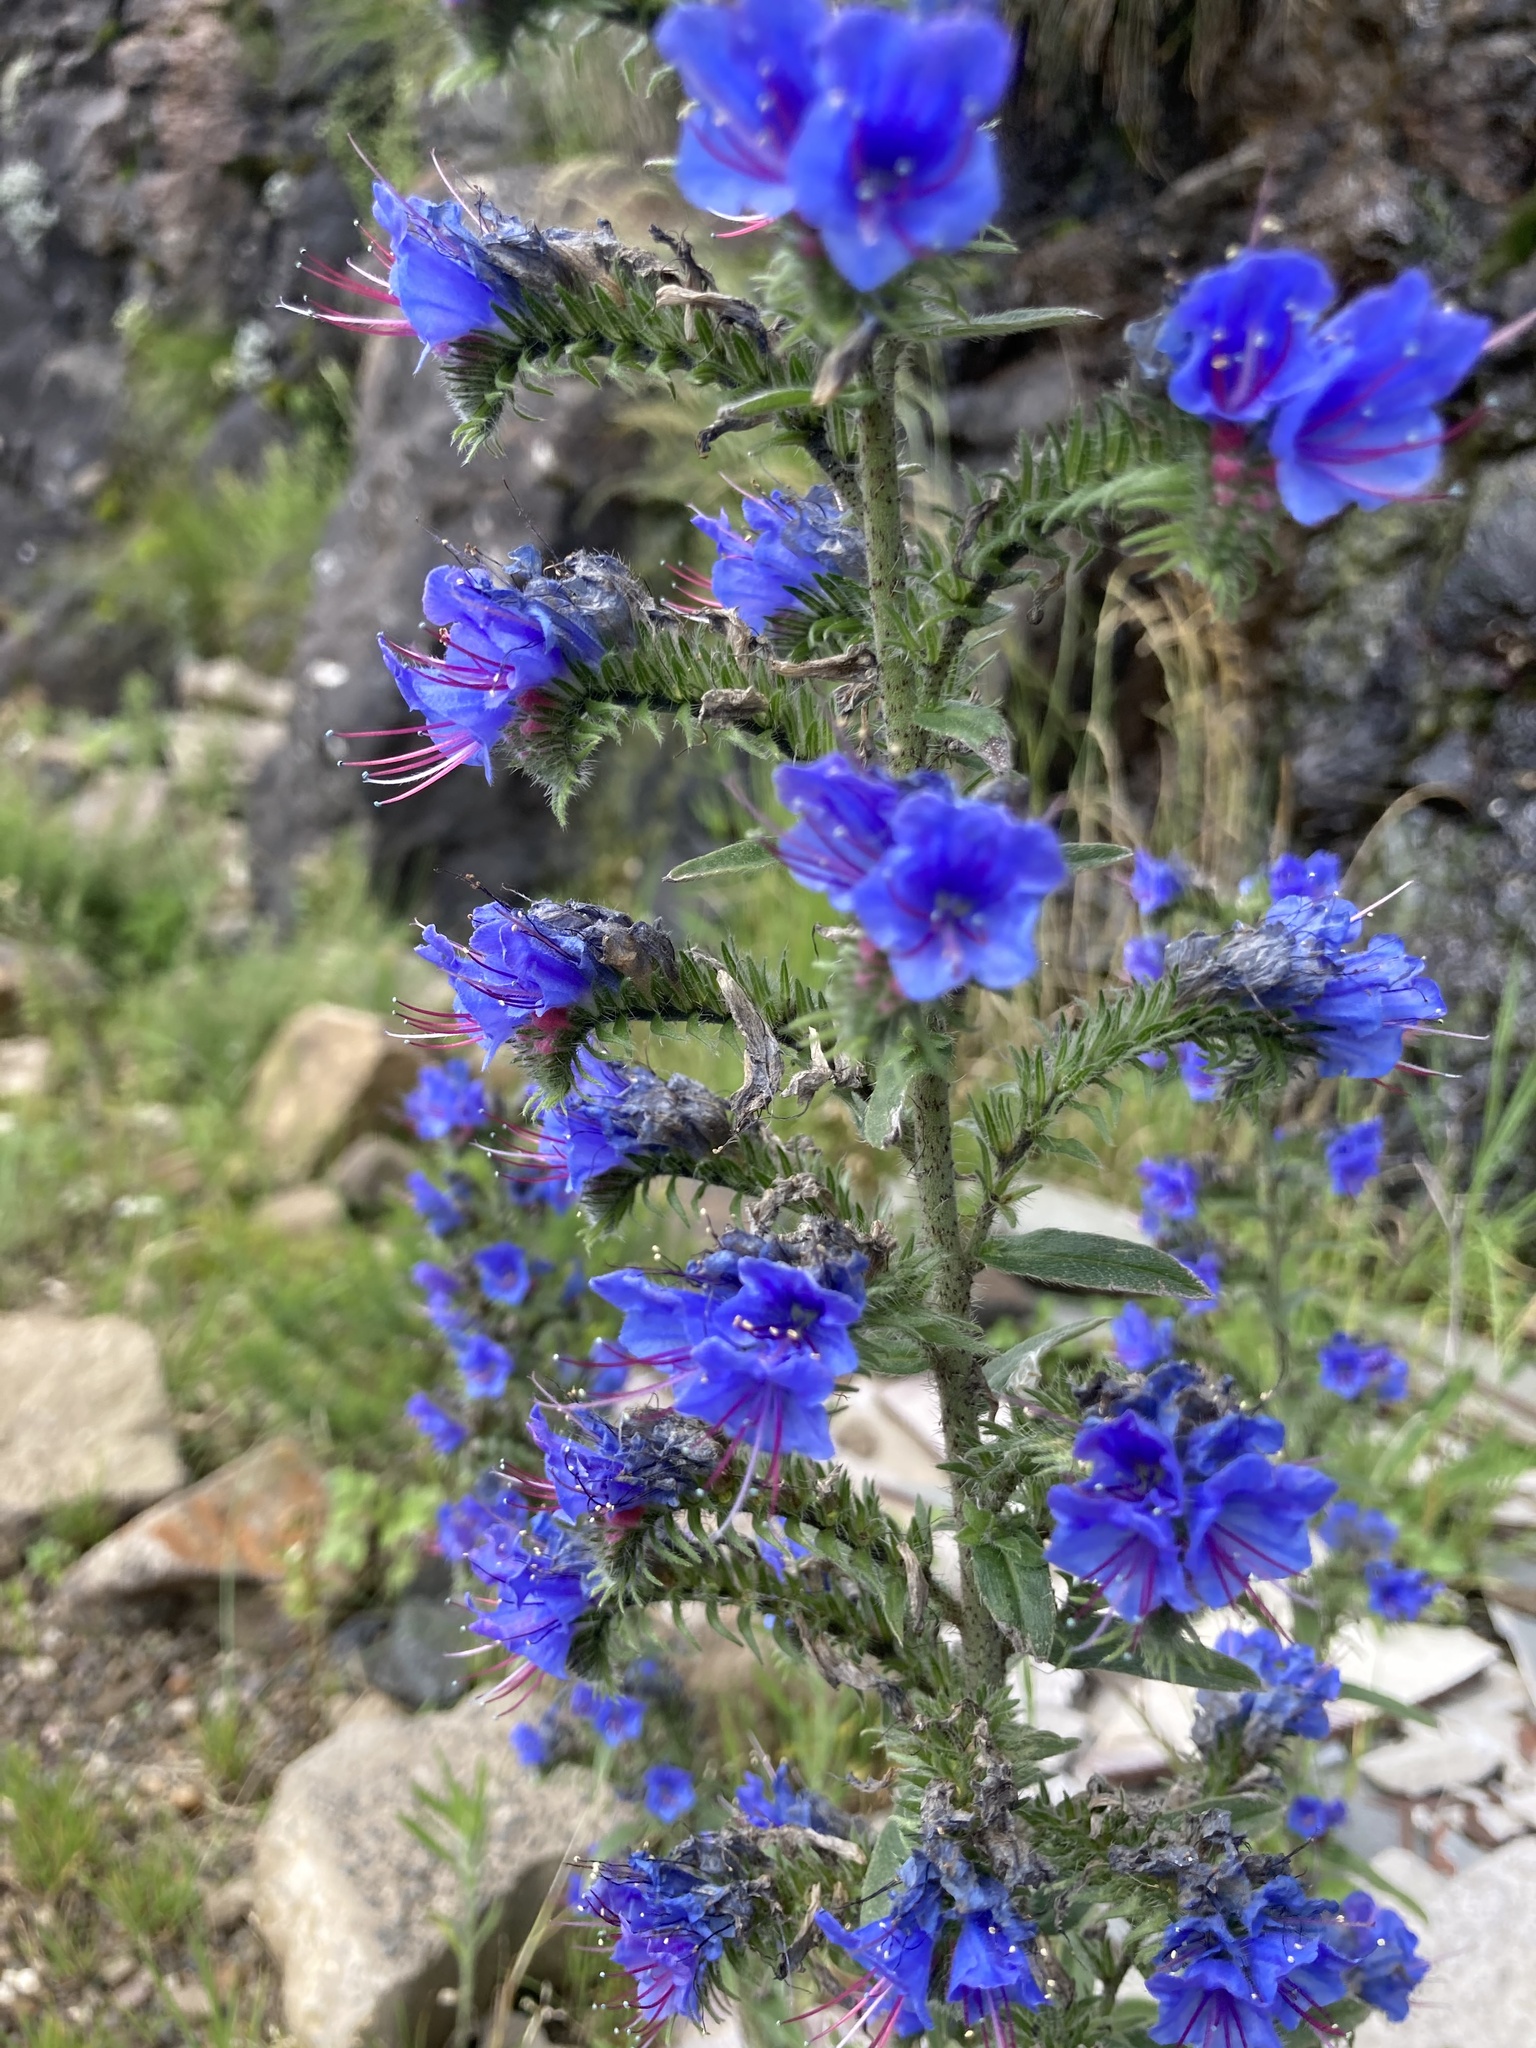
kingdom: Plantae
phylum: Tracheophyta
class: Magnoliopsida
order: Boraginales
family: Boraginaceae
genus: Echium
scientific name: Echium vulgare
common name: Common viper's bugloss
